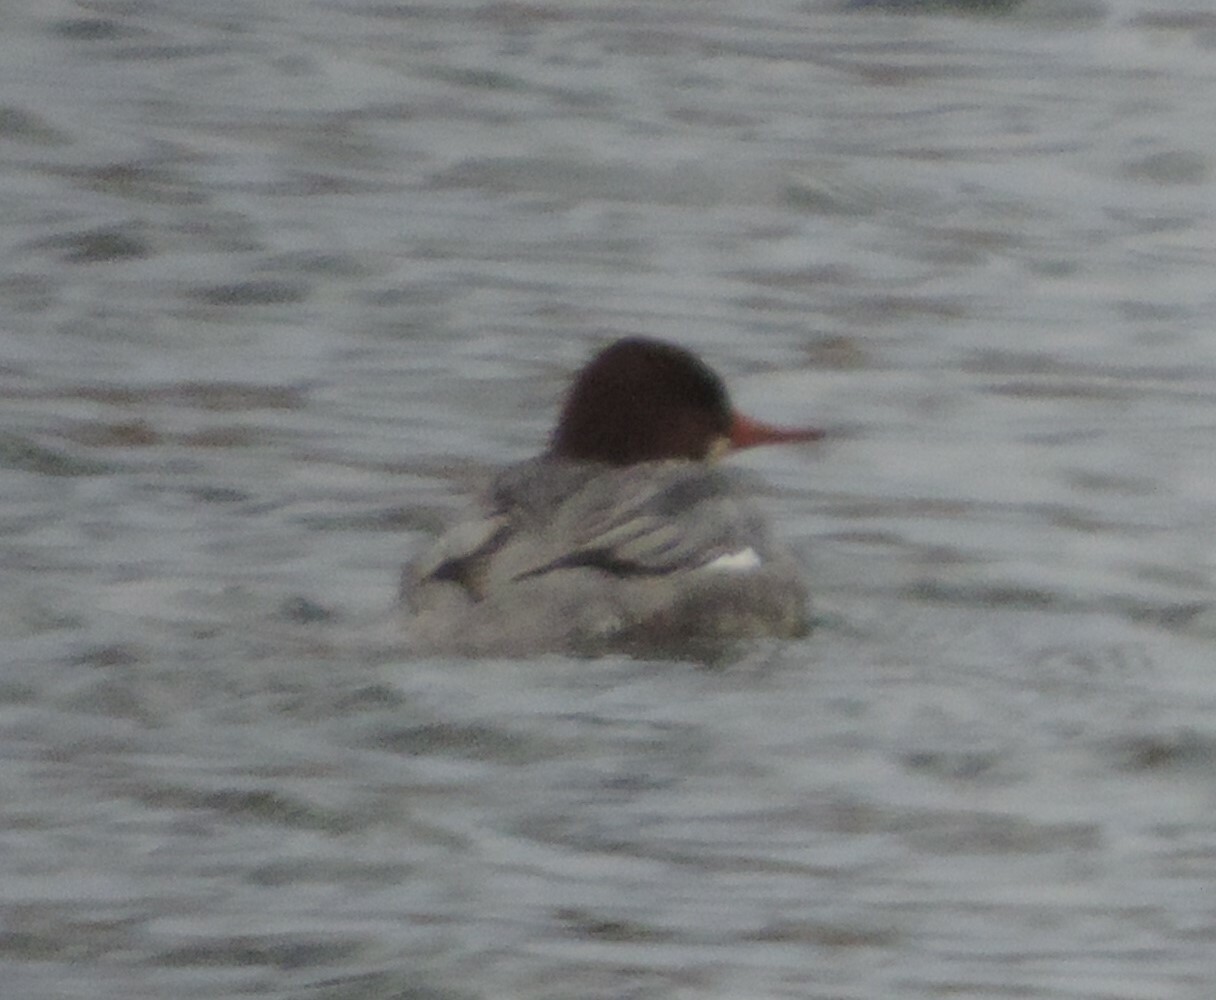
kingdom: Animalia
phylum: Chordata
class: Aves
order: Anseriformes
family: Anatidae
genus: Mergus
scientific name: Mergus merganser
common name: Common merganser
